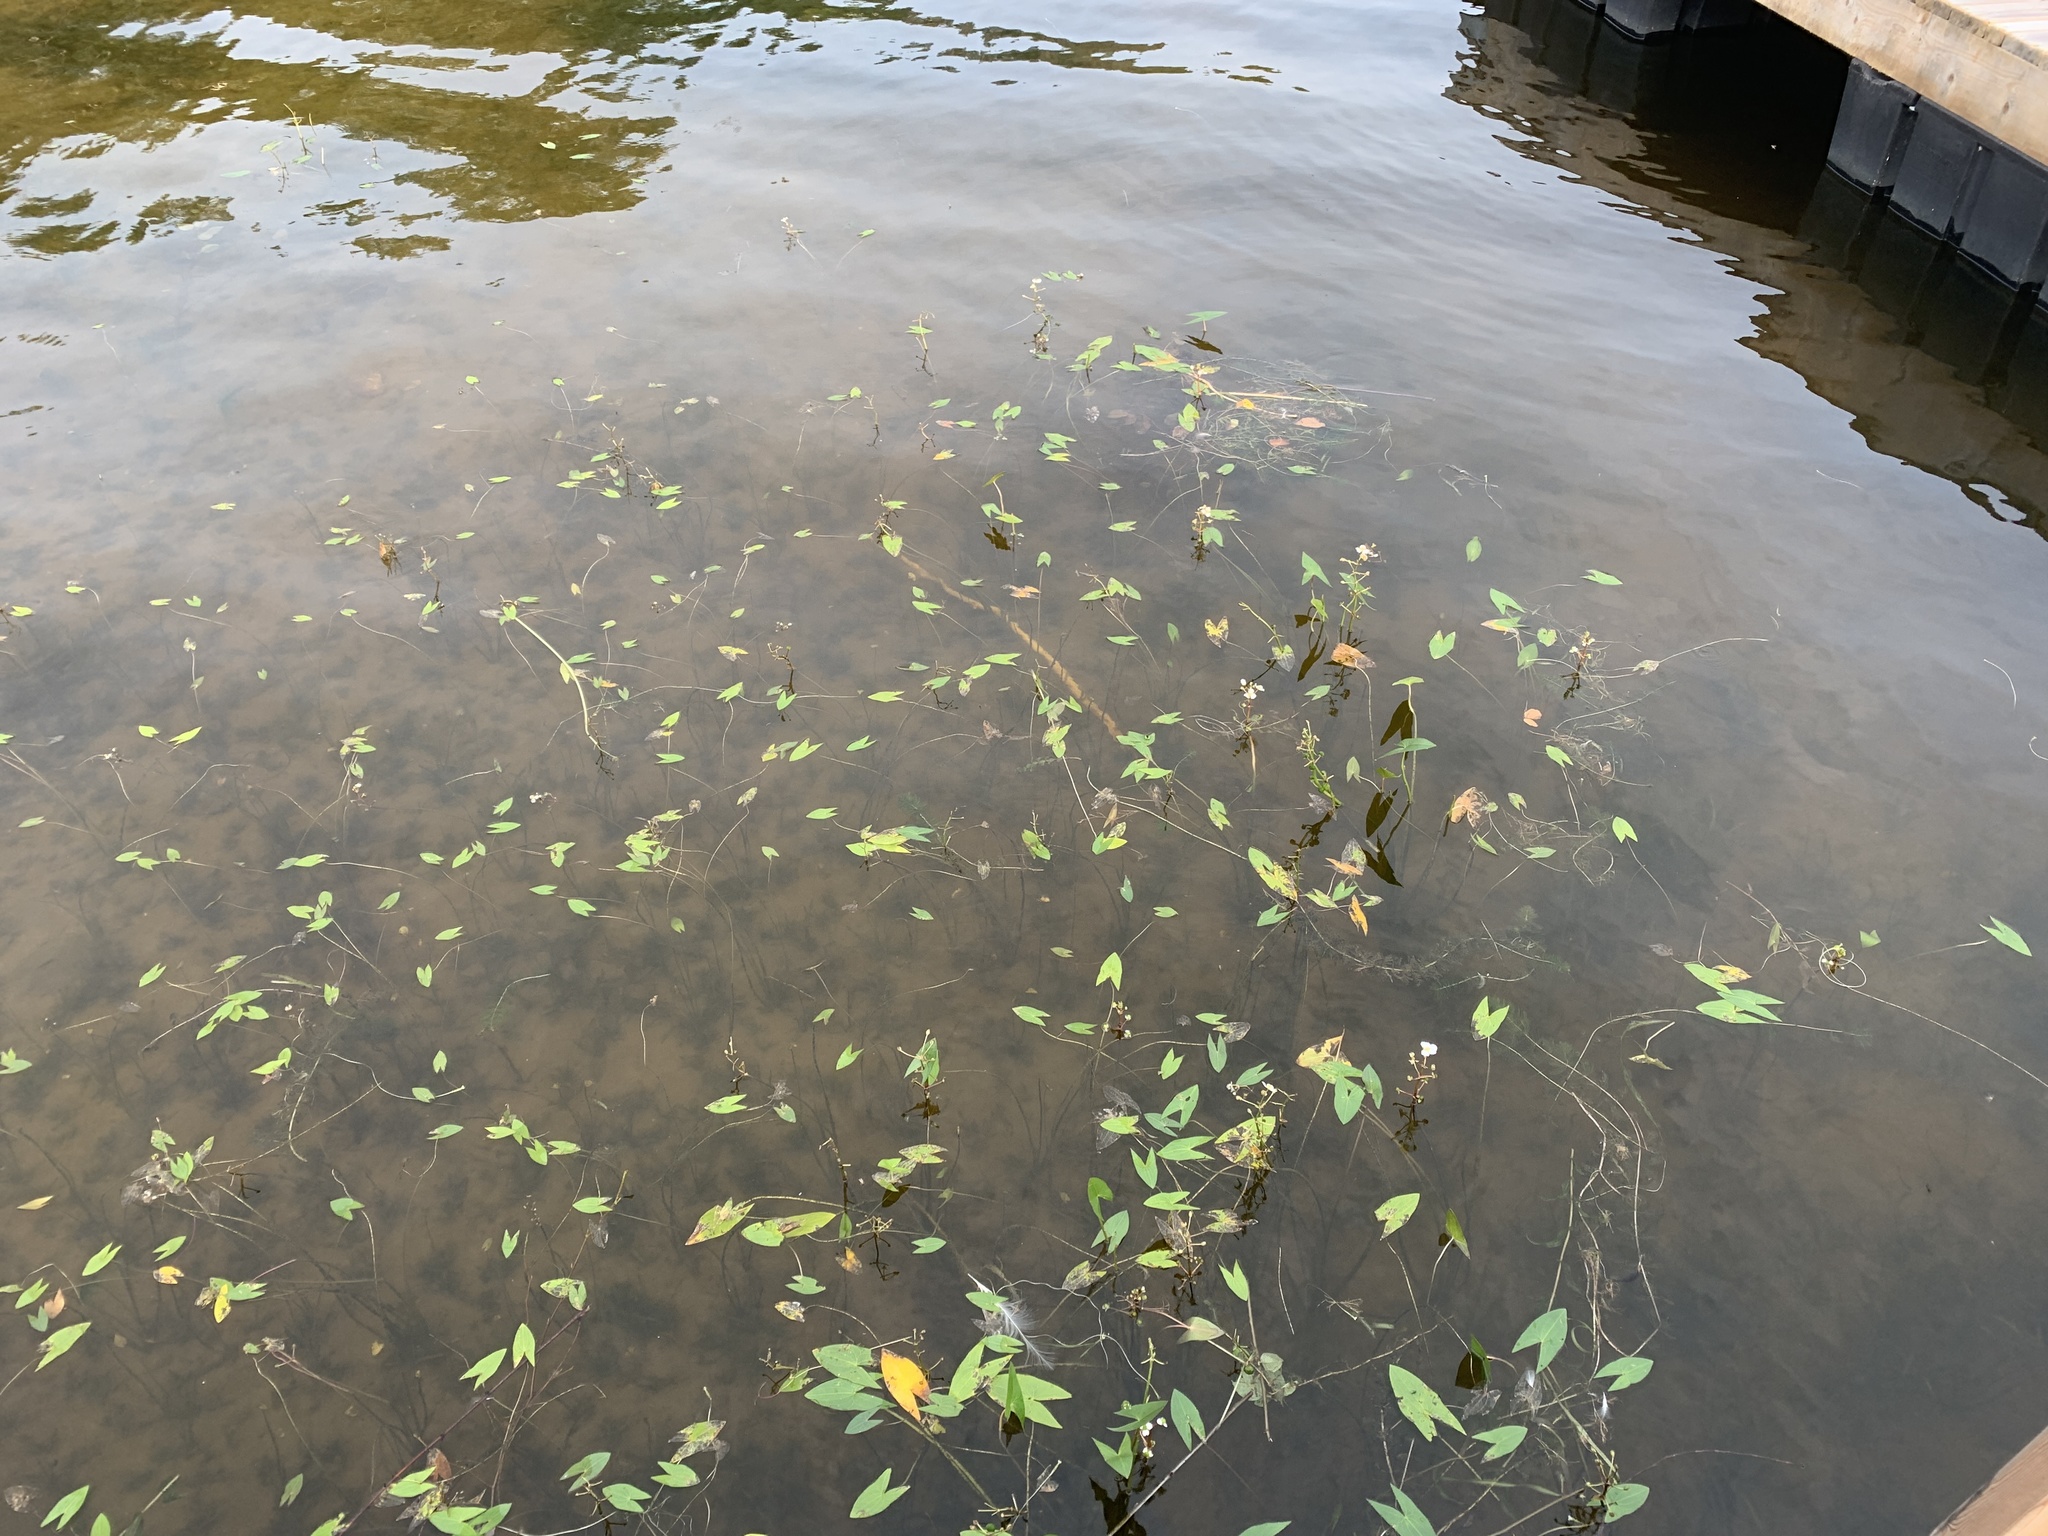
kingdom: Plantae
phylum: Tracheophyta
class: Liliopsida
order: Alismatales
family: Alismataceae
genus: Sagittaria
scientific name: Sagittaria cuneata
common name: Northern arrowhead
